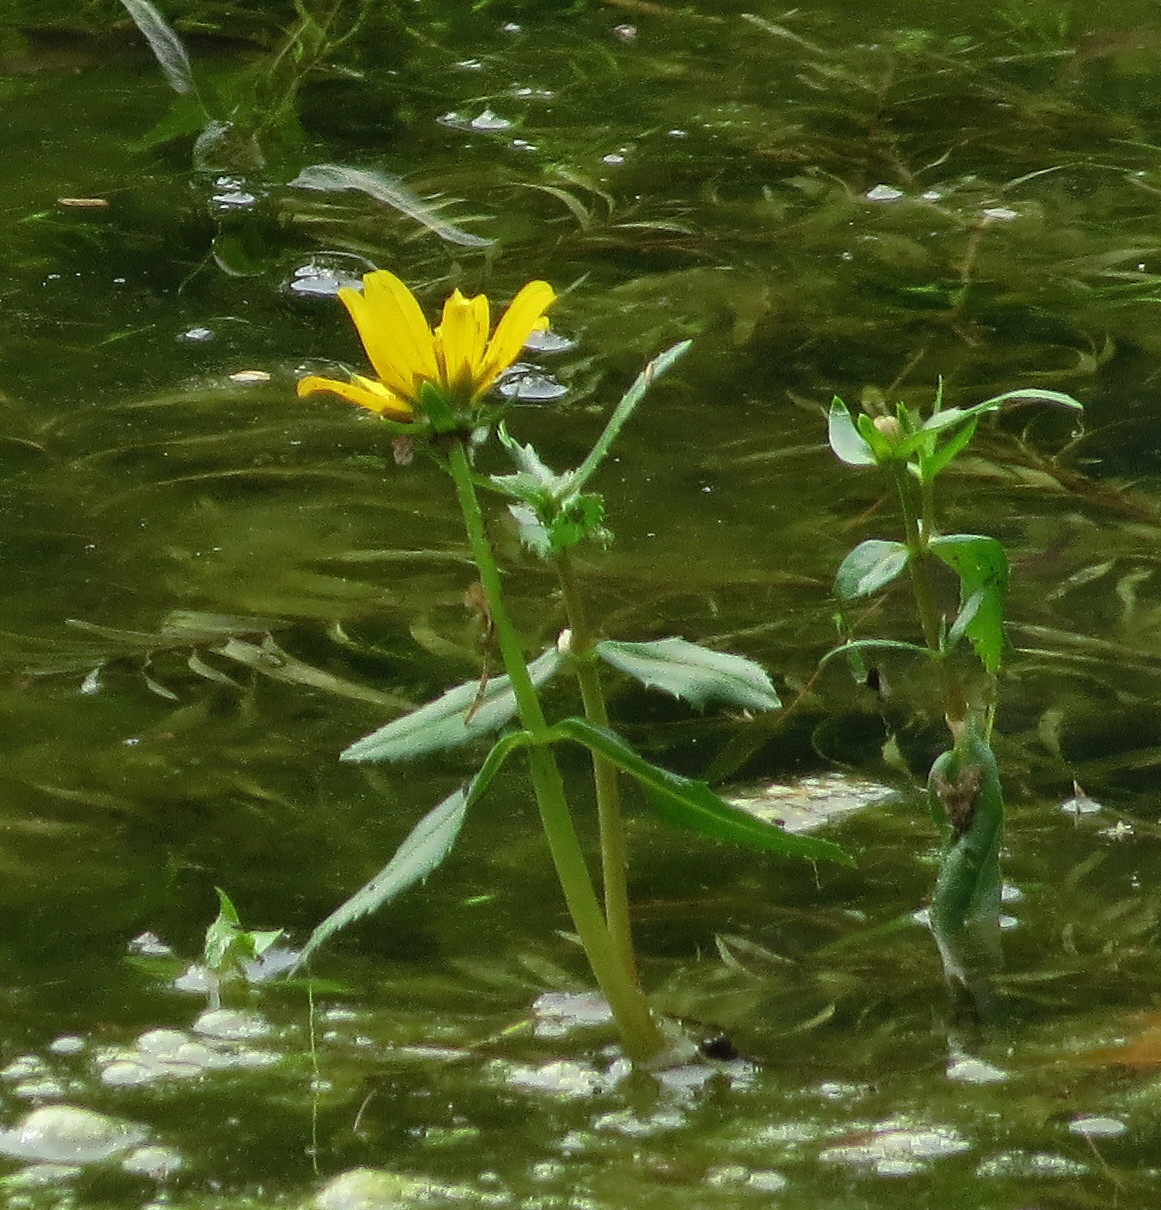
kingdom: Plantae
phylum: Tracheophyta
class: Magnoliopsida
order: Asterales
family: Asteraceae
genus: Bidens
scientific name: Bidens beckii
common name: Beck's beggarticks
